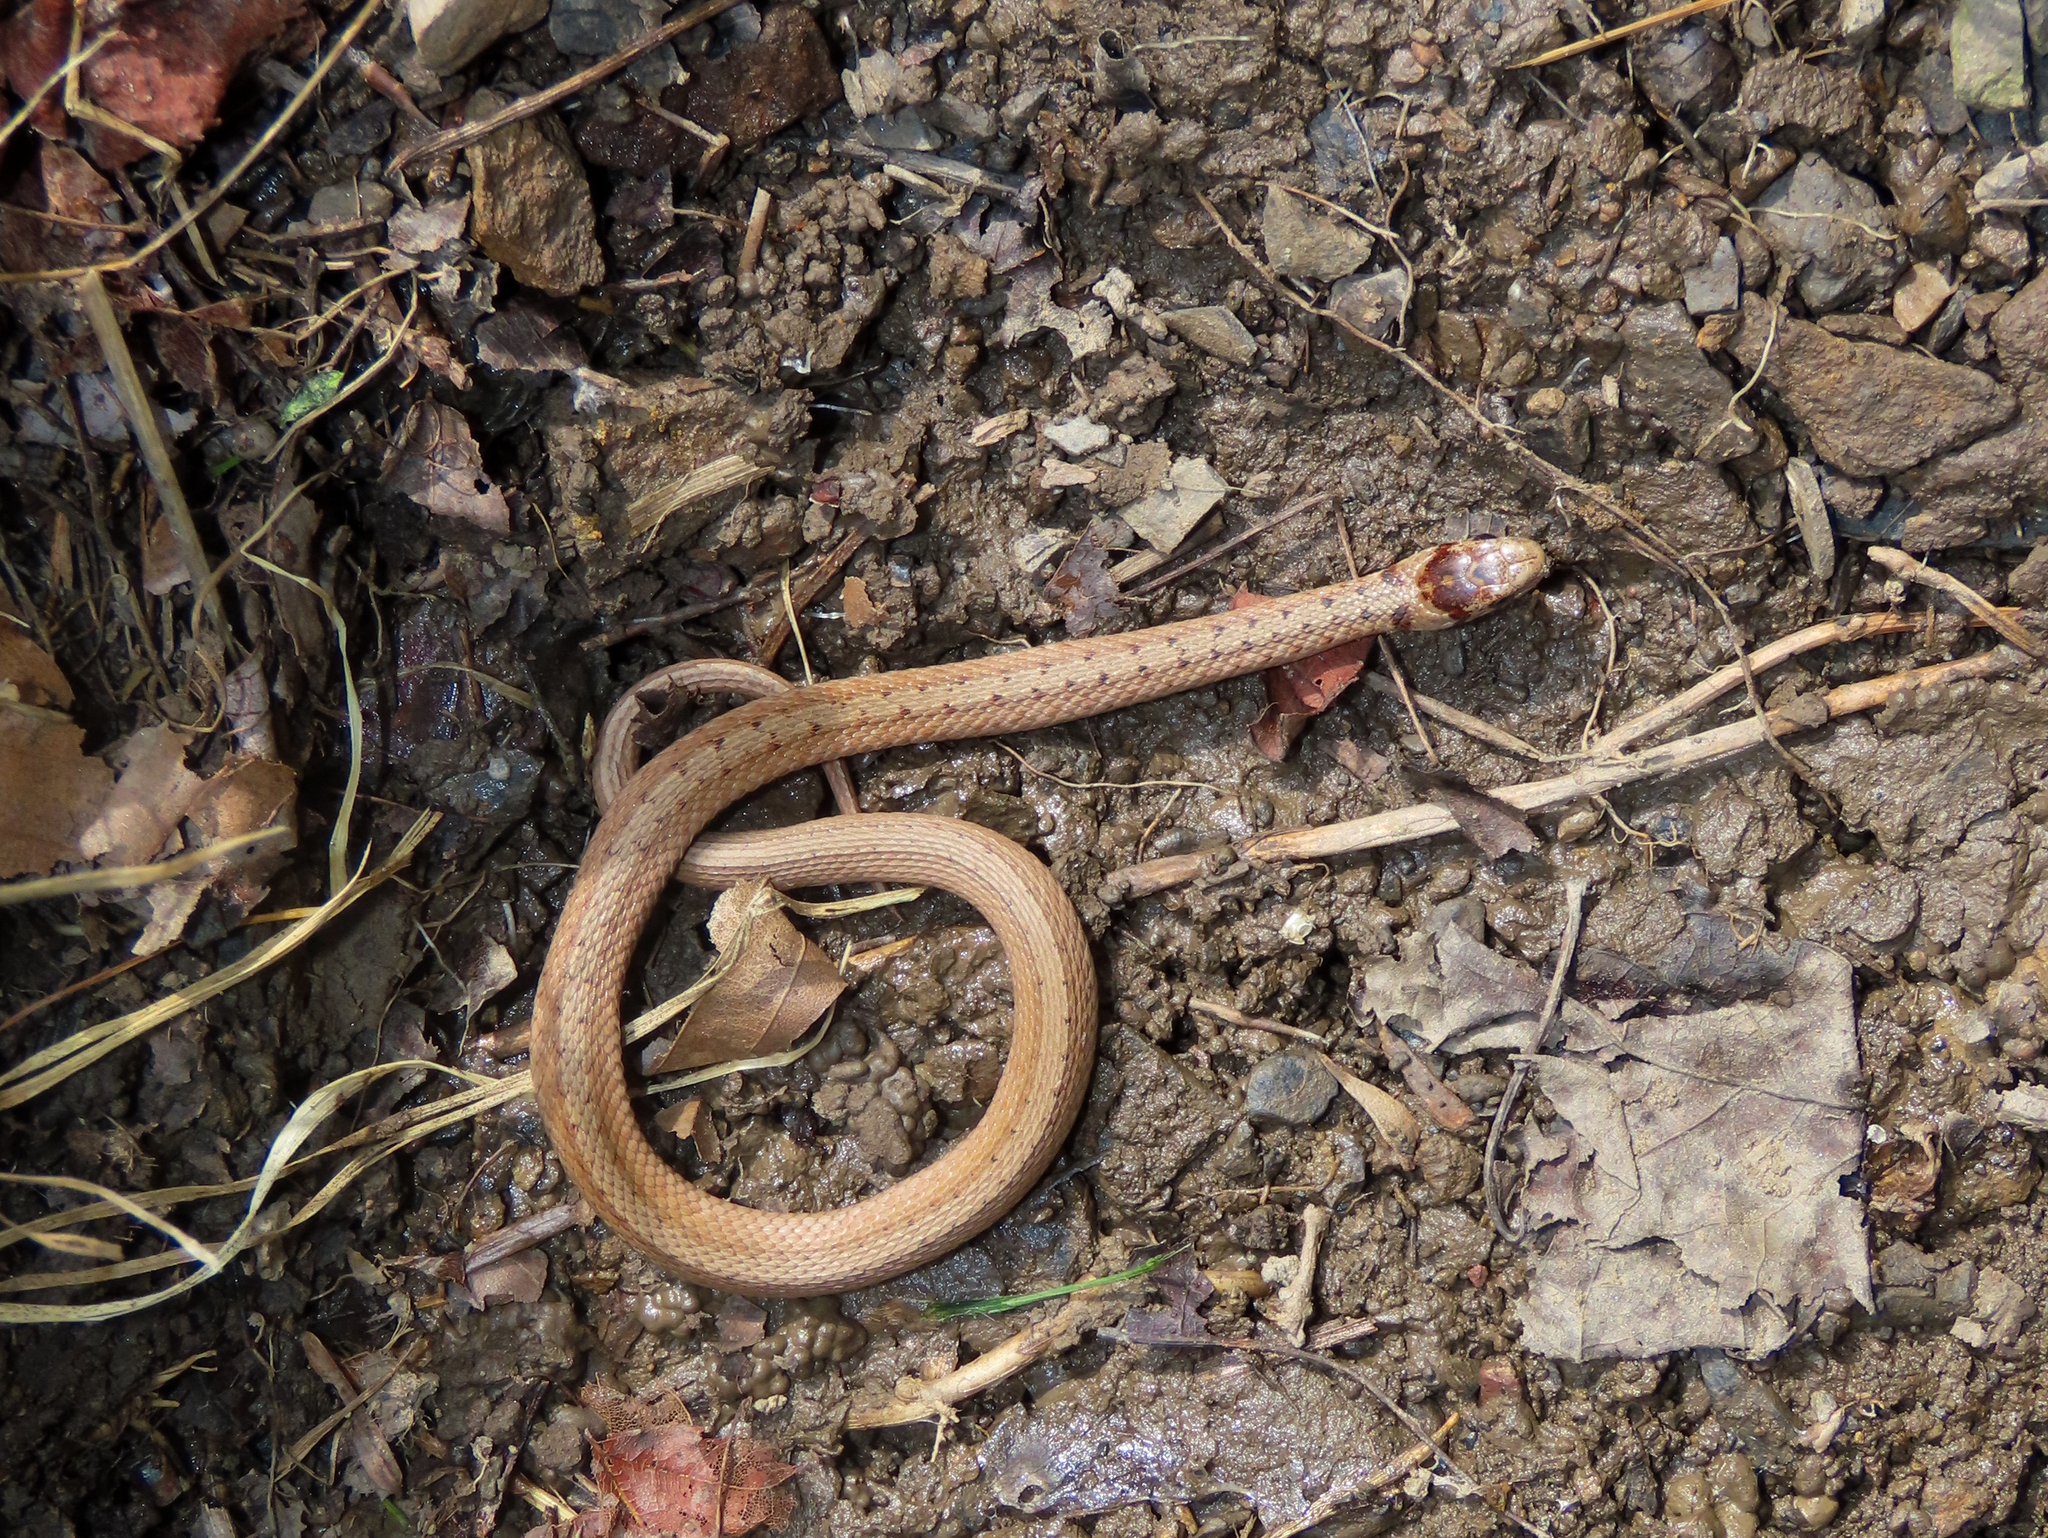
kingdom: Animalia
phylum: Chordata
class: Squamata
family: Colubridae
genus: Storeria
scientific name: Storeria dekayi
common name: (dekay’s) brown snake
